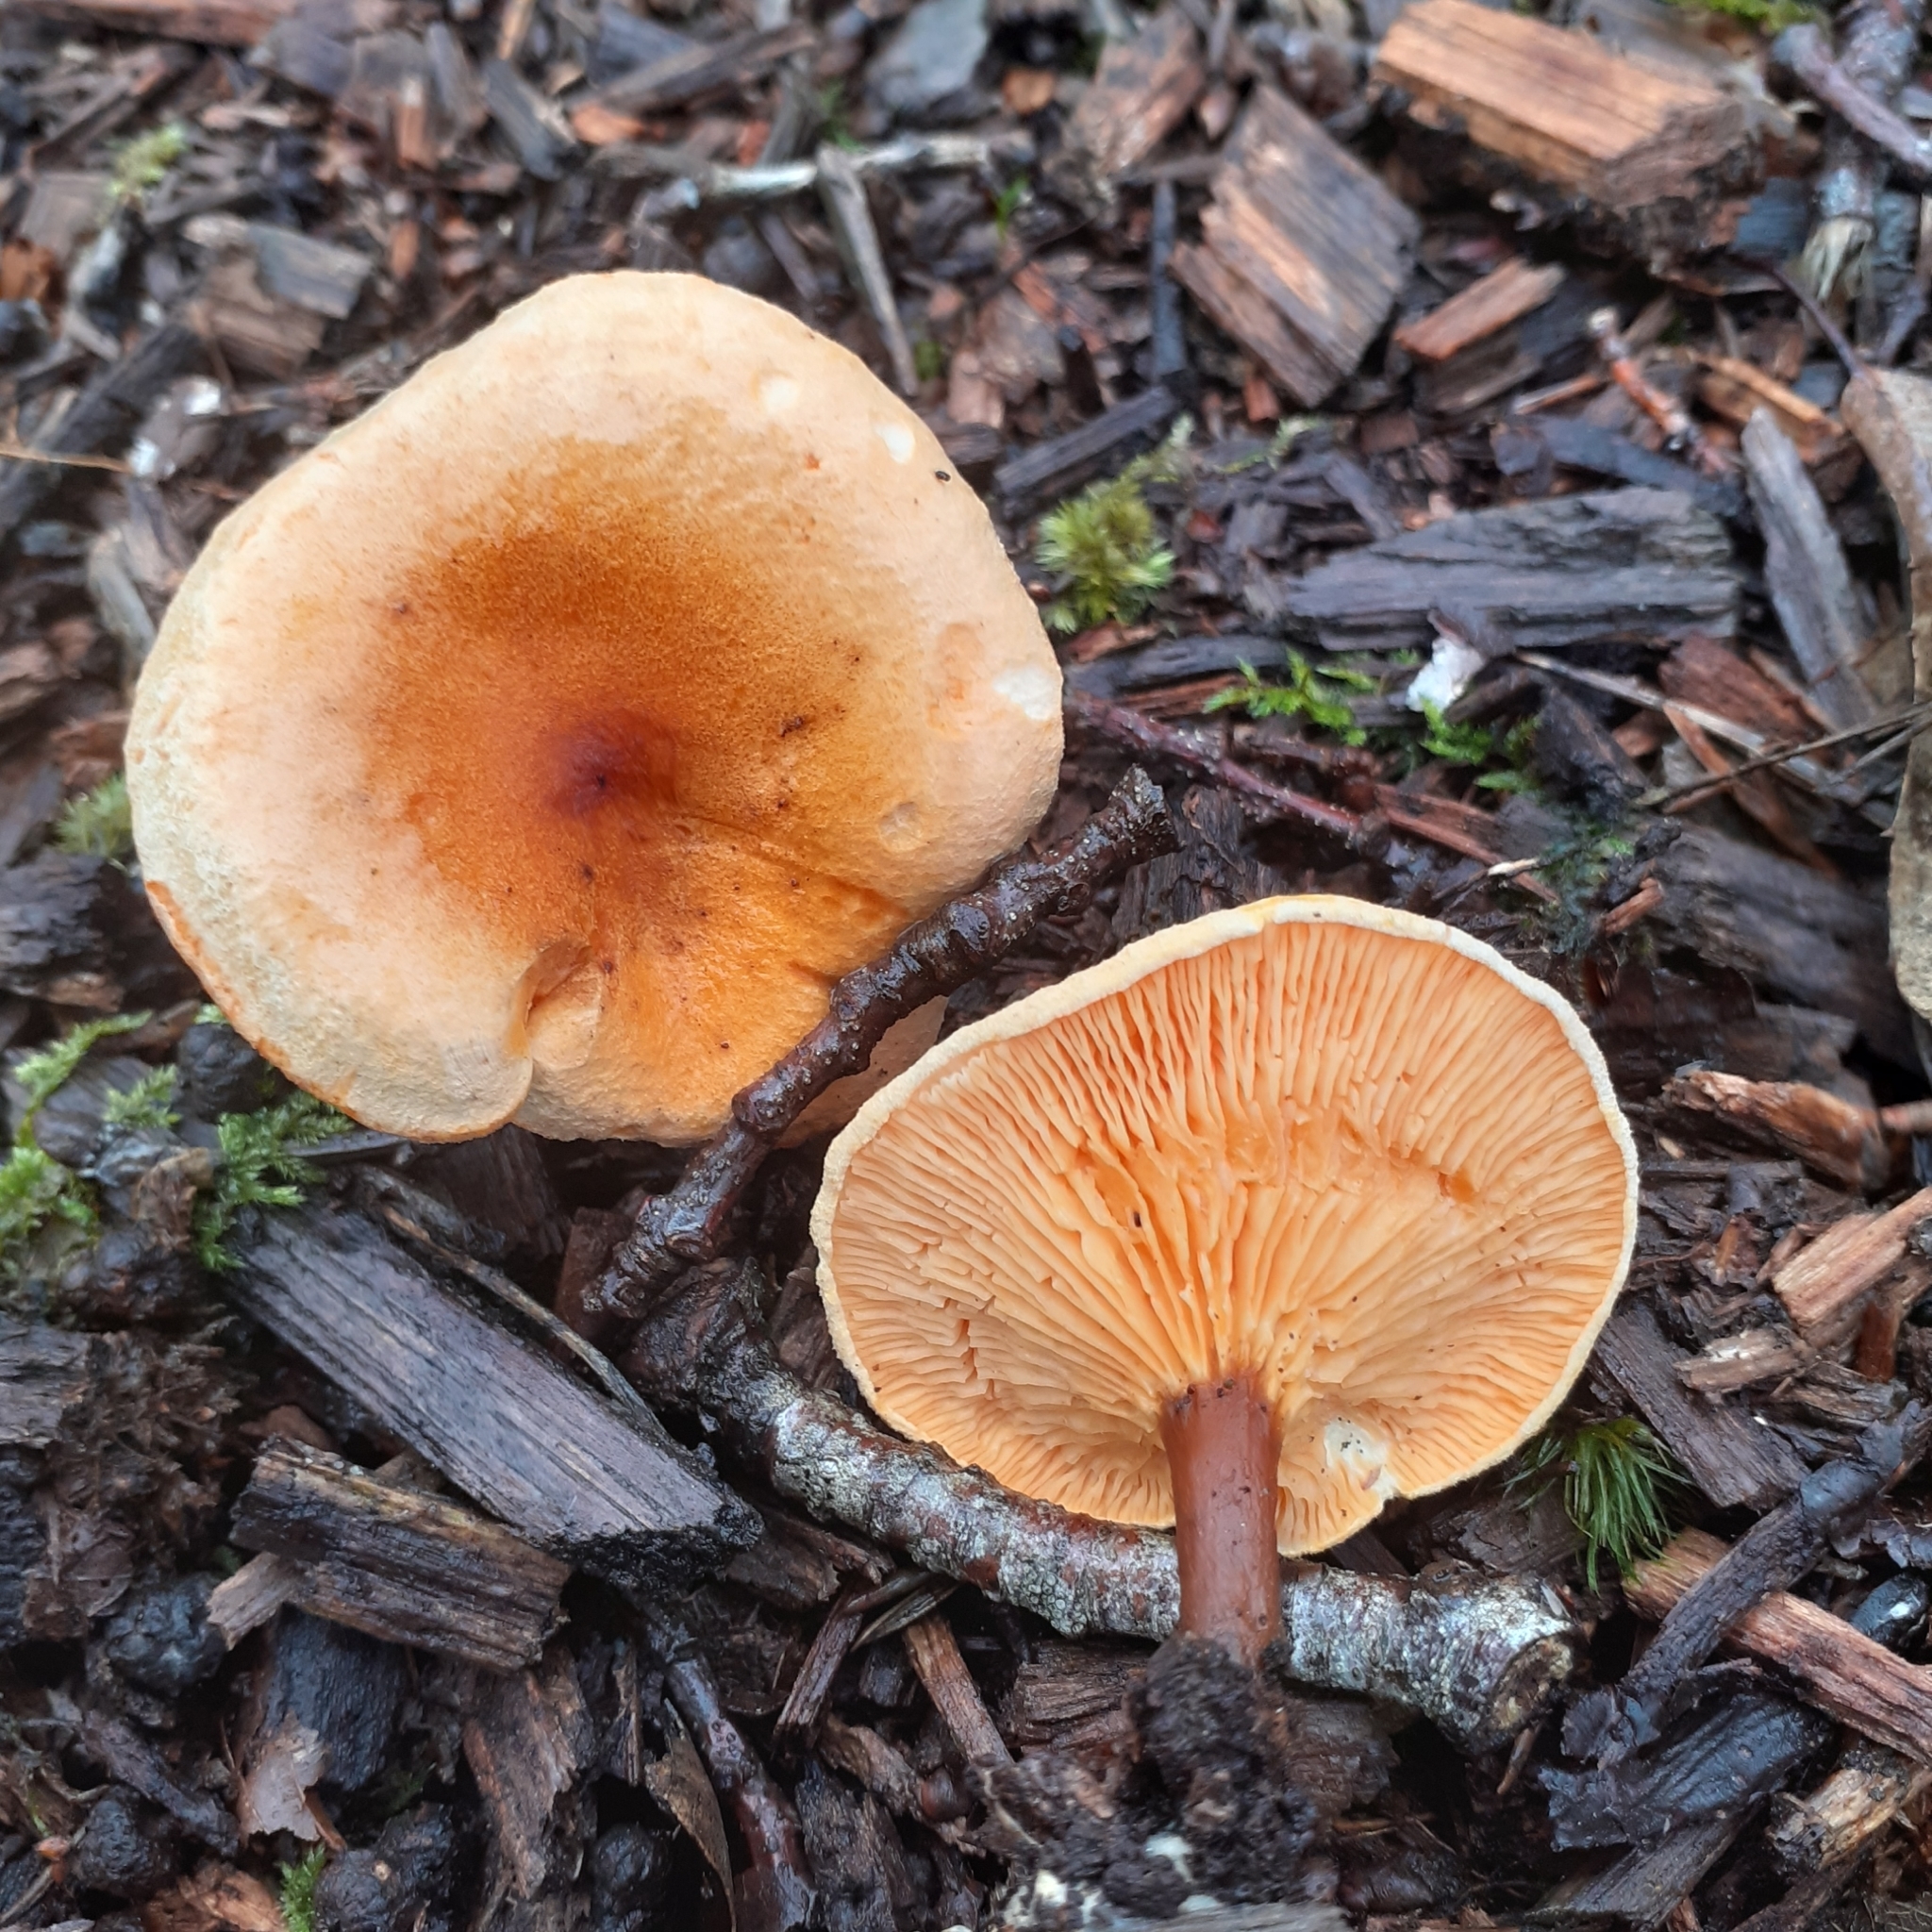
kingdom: Fungi
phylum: Basidiomycota
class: Agaricomycetes
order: Boletales
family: Hygrophoropsidaceae
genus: Hygrophoropsis
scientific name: Hygrophoropsis aurantiaca
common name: False chanterelle
